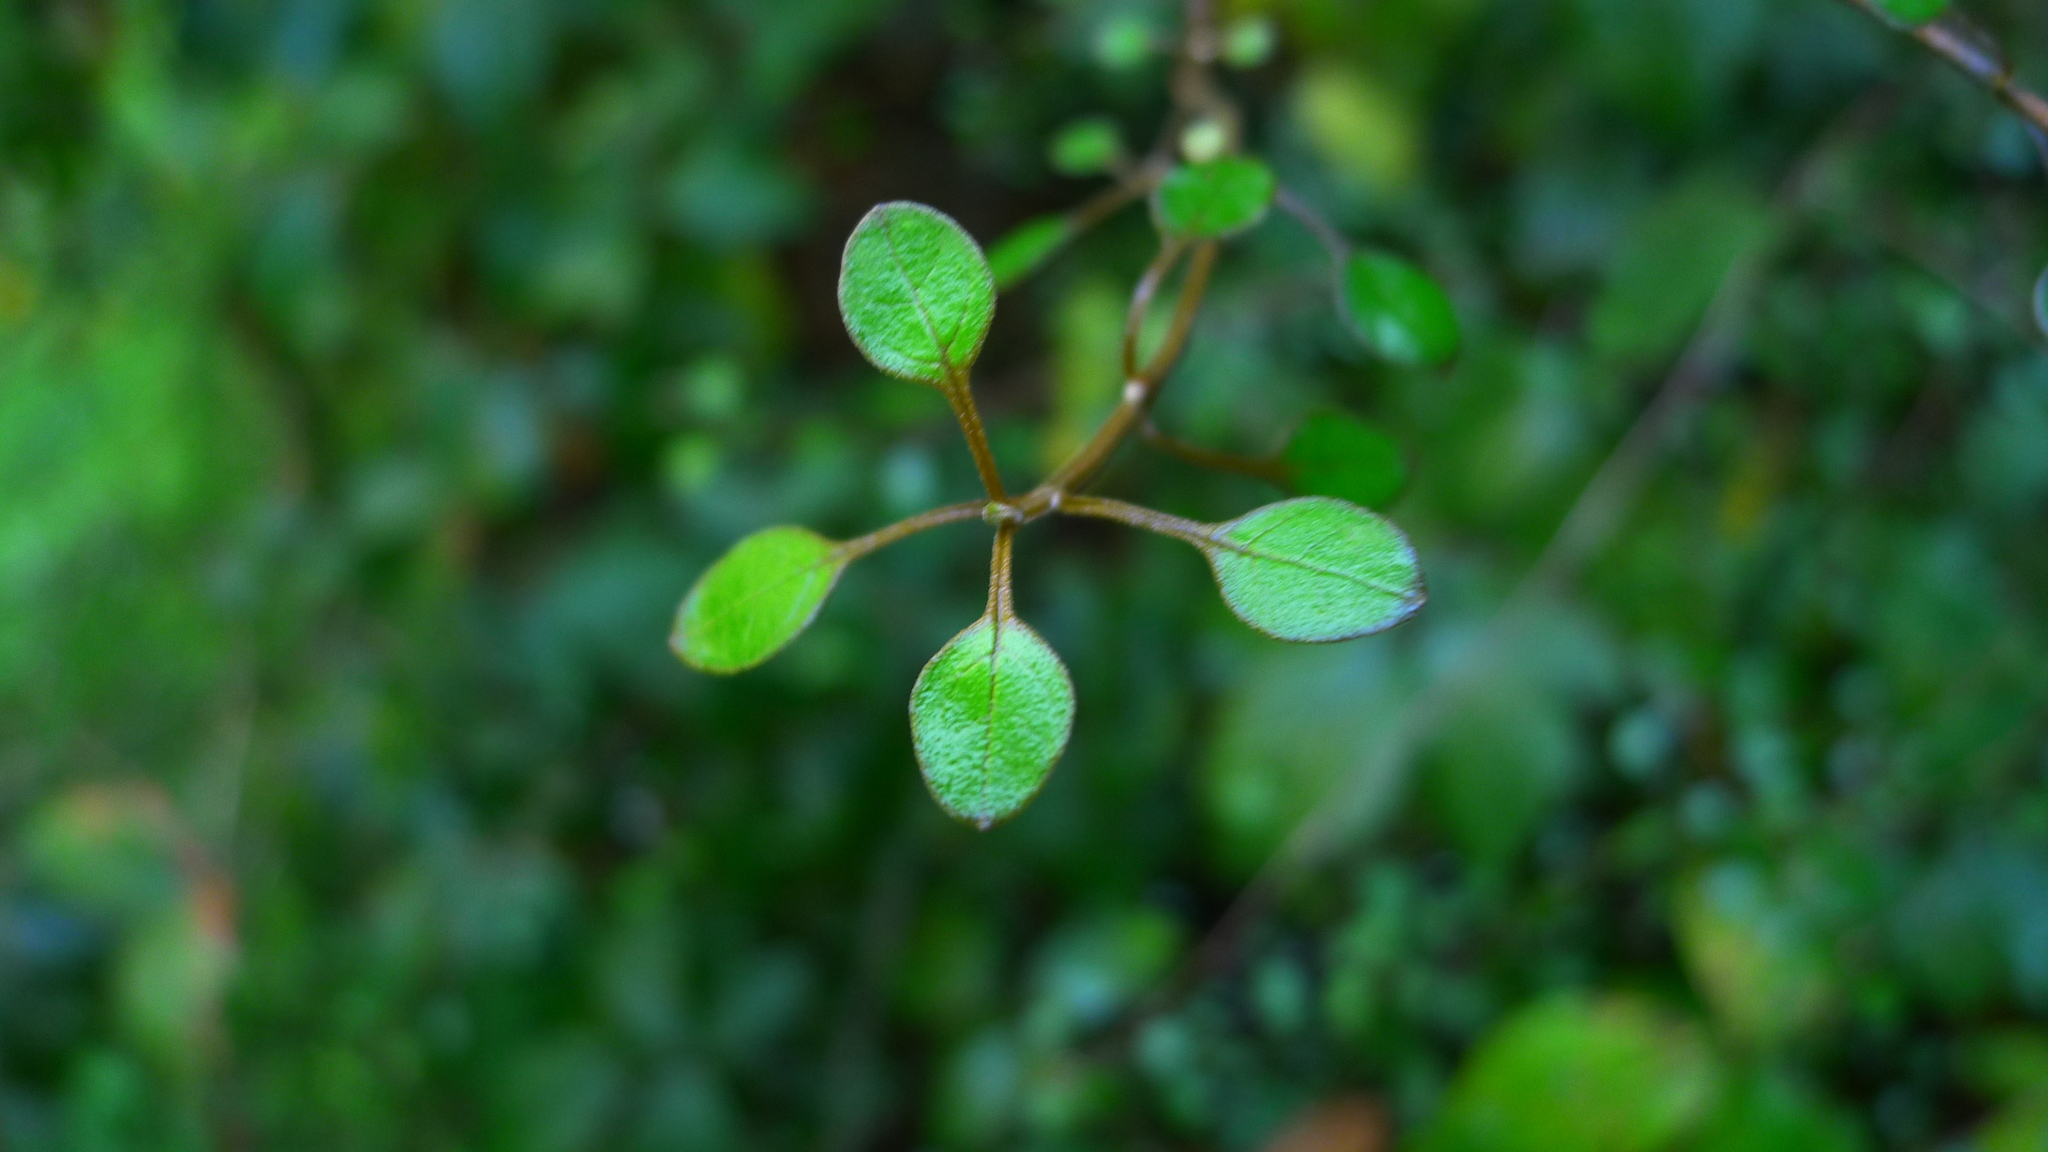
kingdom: Plantae
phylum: Tracheophyta
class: Magnoliopsida
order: Lamiales
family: Lamiaceae
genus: Teucrium
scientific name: Teucrium parvifolium
